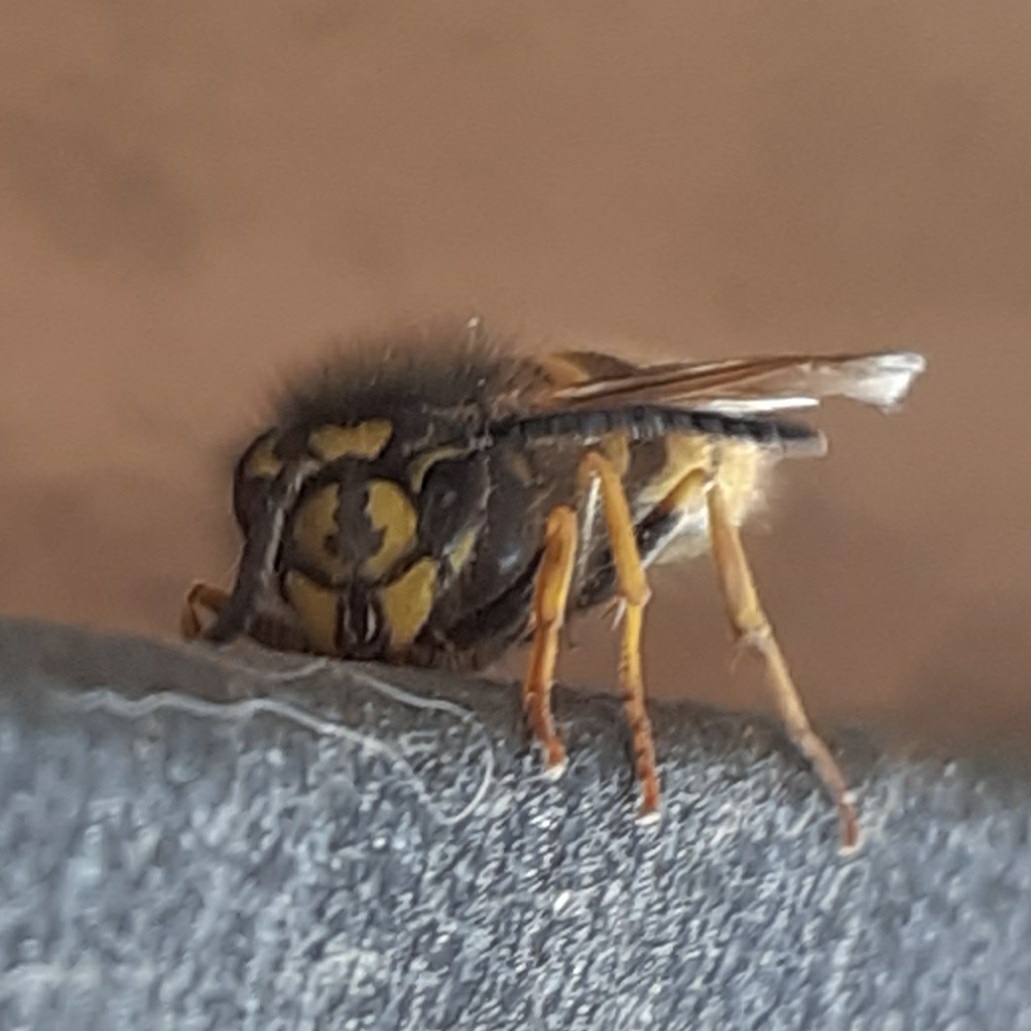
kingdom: Animalia
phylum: Arthropoda
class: Insecta
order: Hymenoptera
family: Vespidae
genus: Vespula
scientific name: Vespula vulgaris
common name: Common wasp
